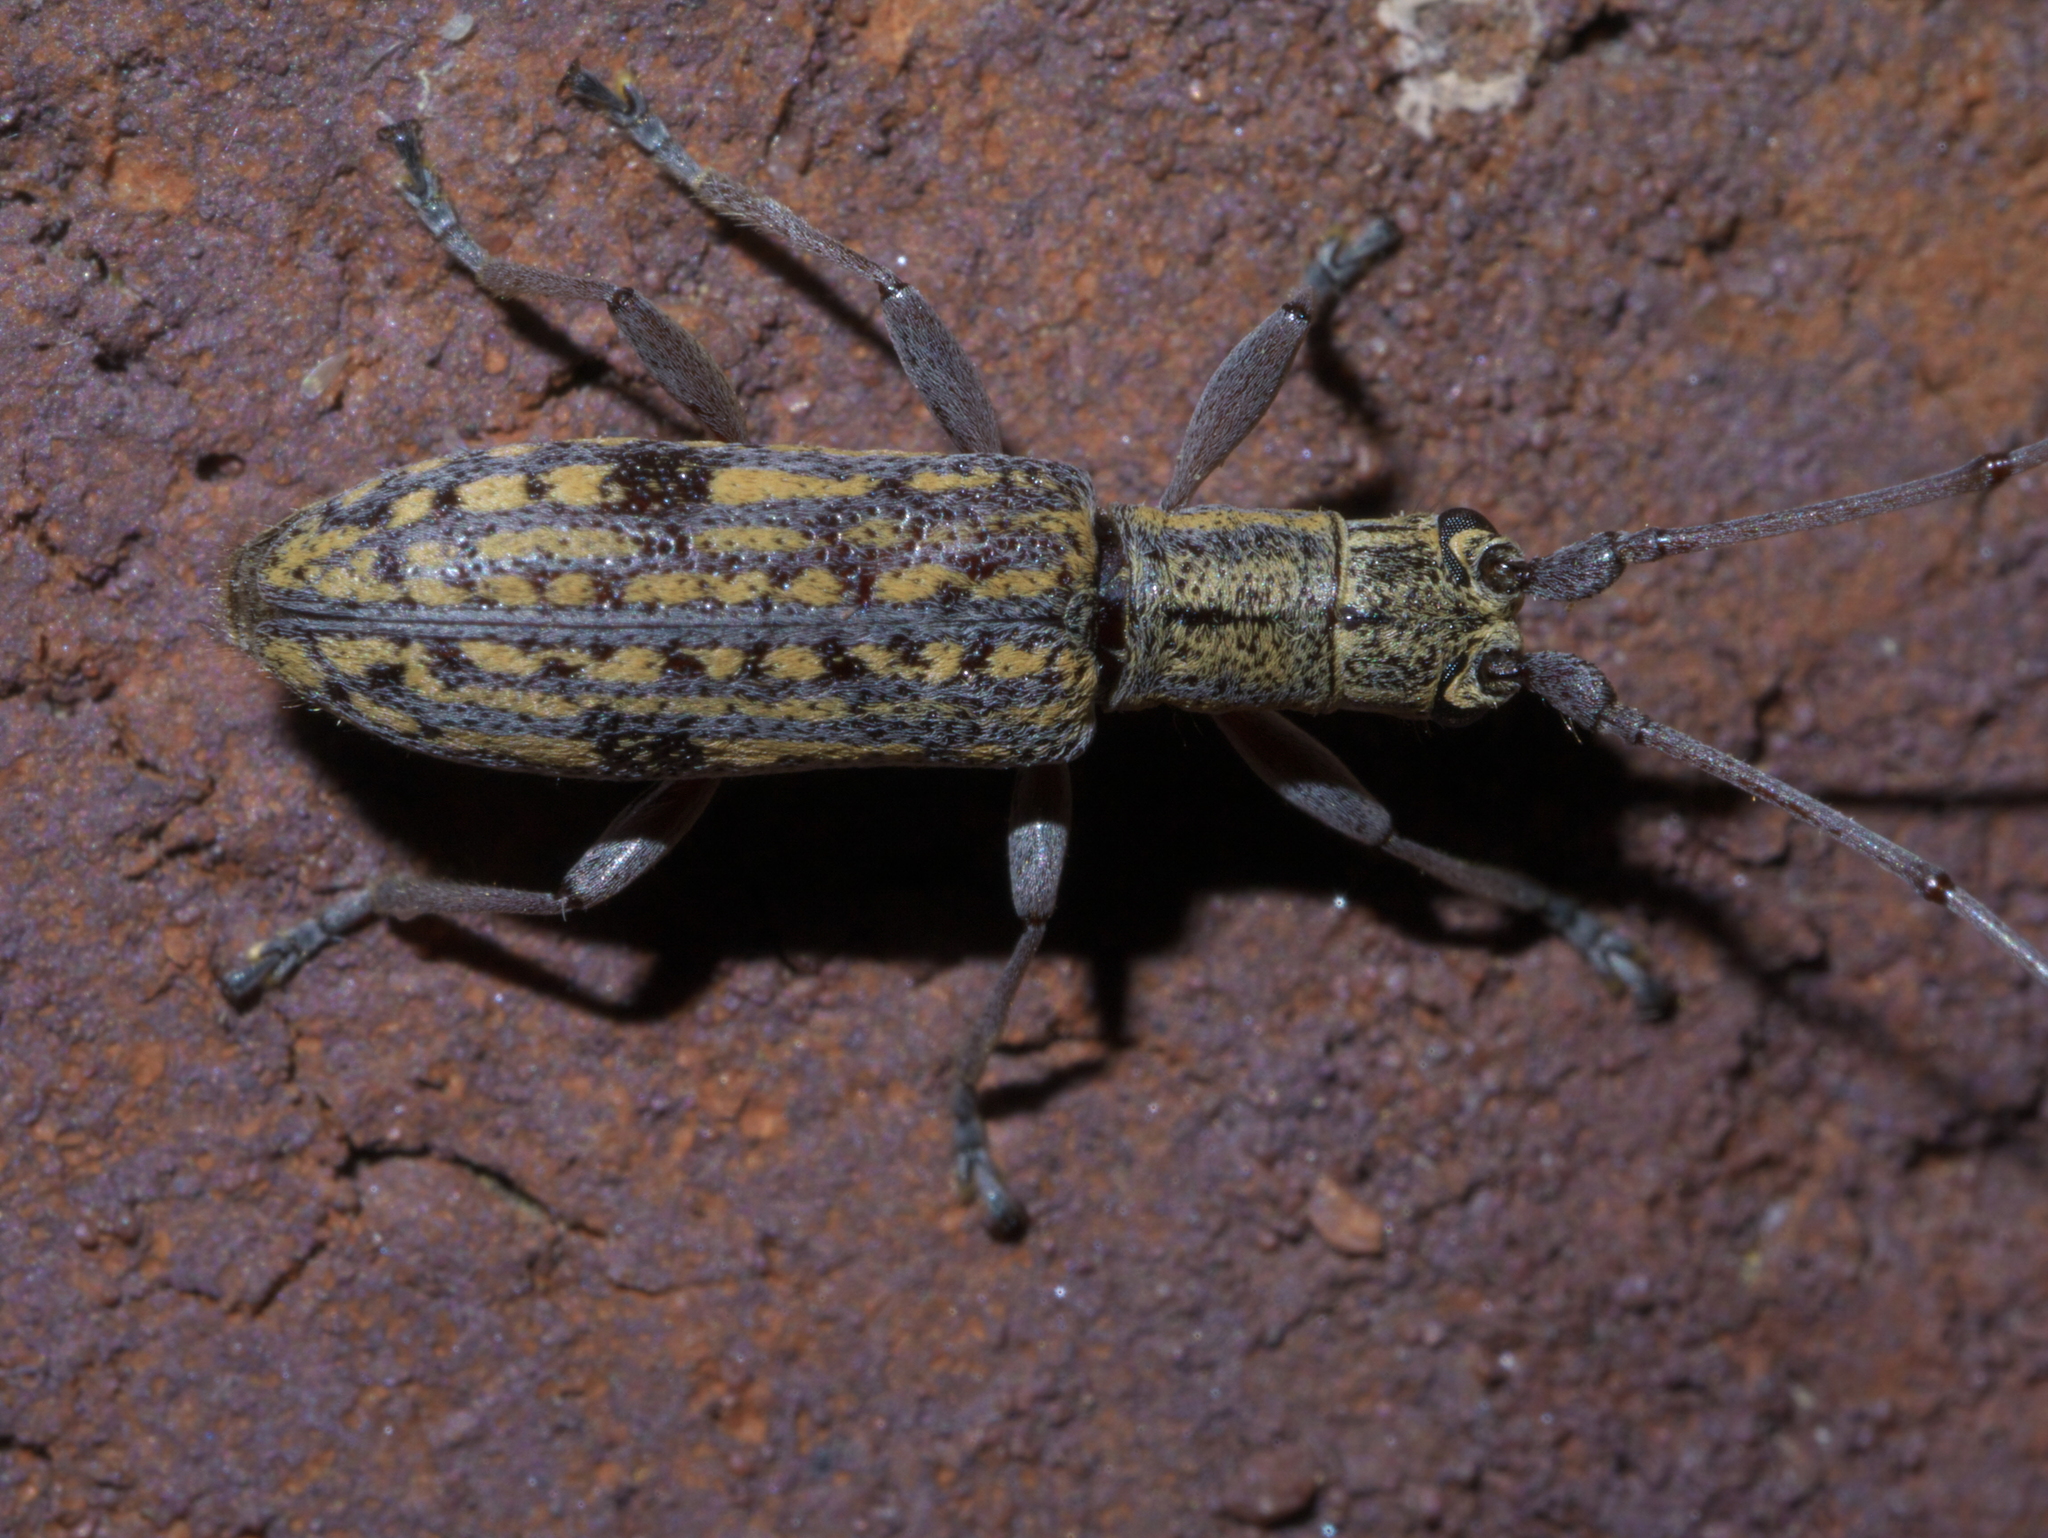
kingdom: Animalia
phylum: Arthropoda
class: Insecta
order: Coleoptera
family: Cerambycidae
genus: Dorcaschema
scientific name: Dorcaschema alternatum
